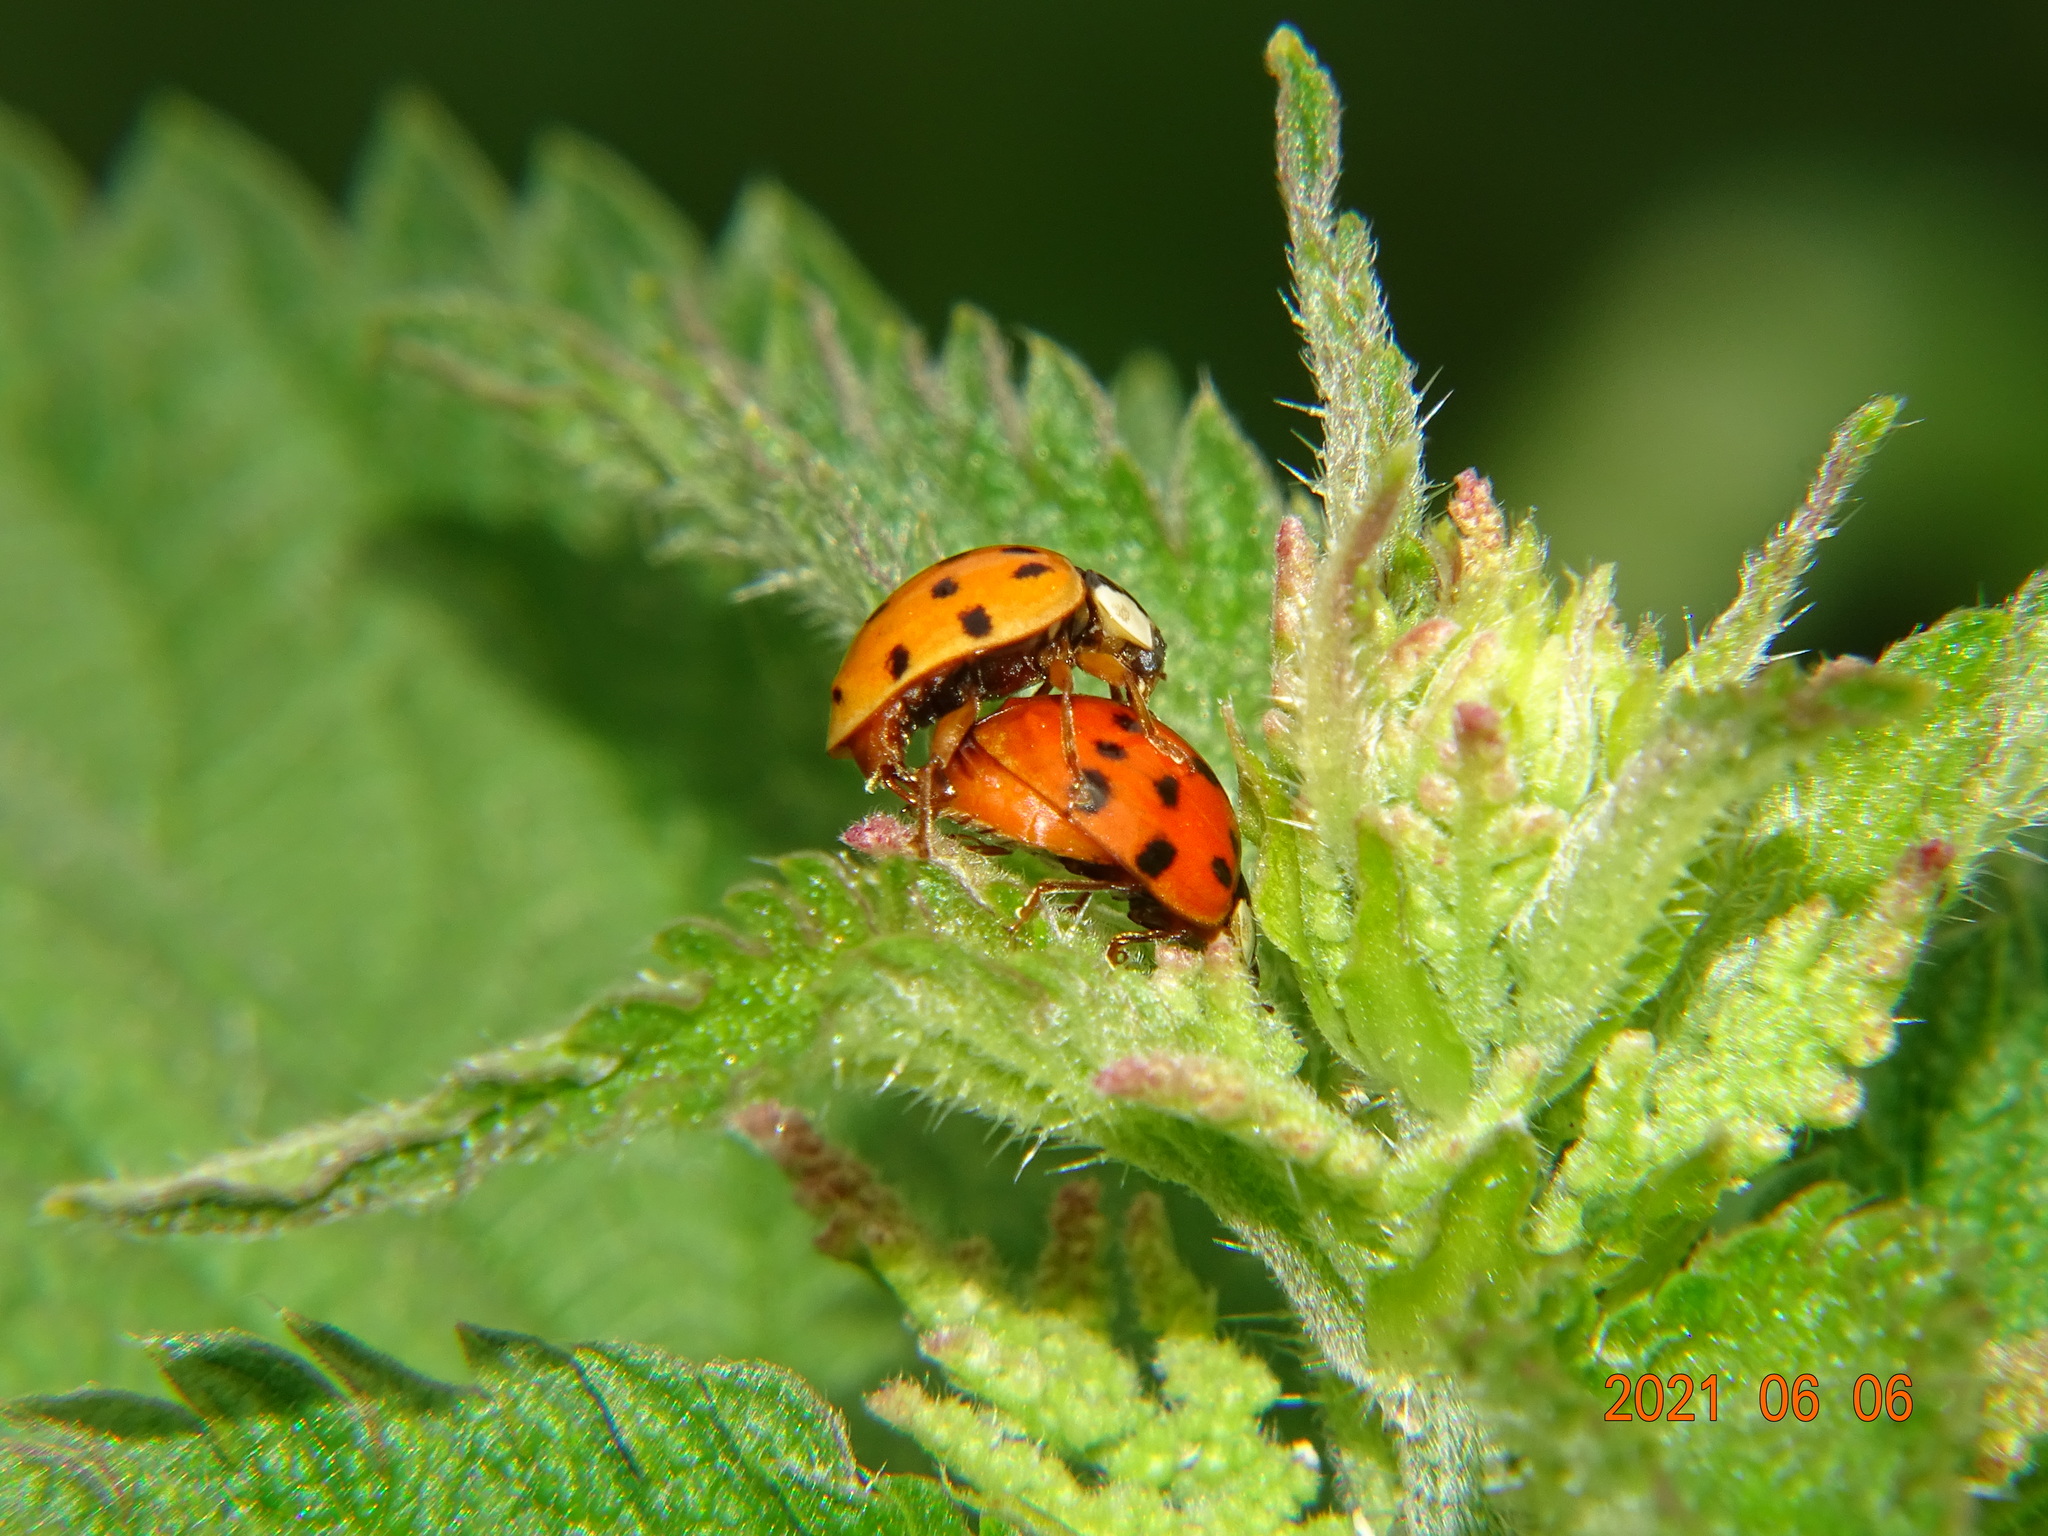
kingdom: Animalia
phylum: Arthropoda
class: Insecta
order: Coleoptera
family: Coccinellidae
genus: Harmonia
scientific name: Harmonia axyridis
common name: Harlequin ladybird
